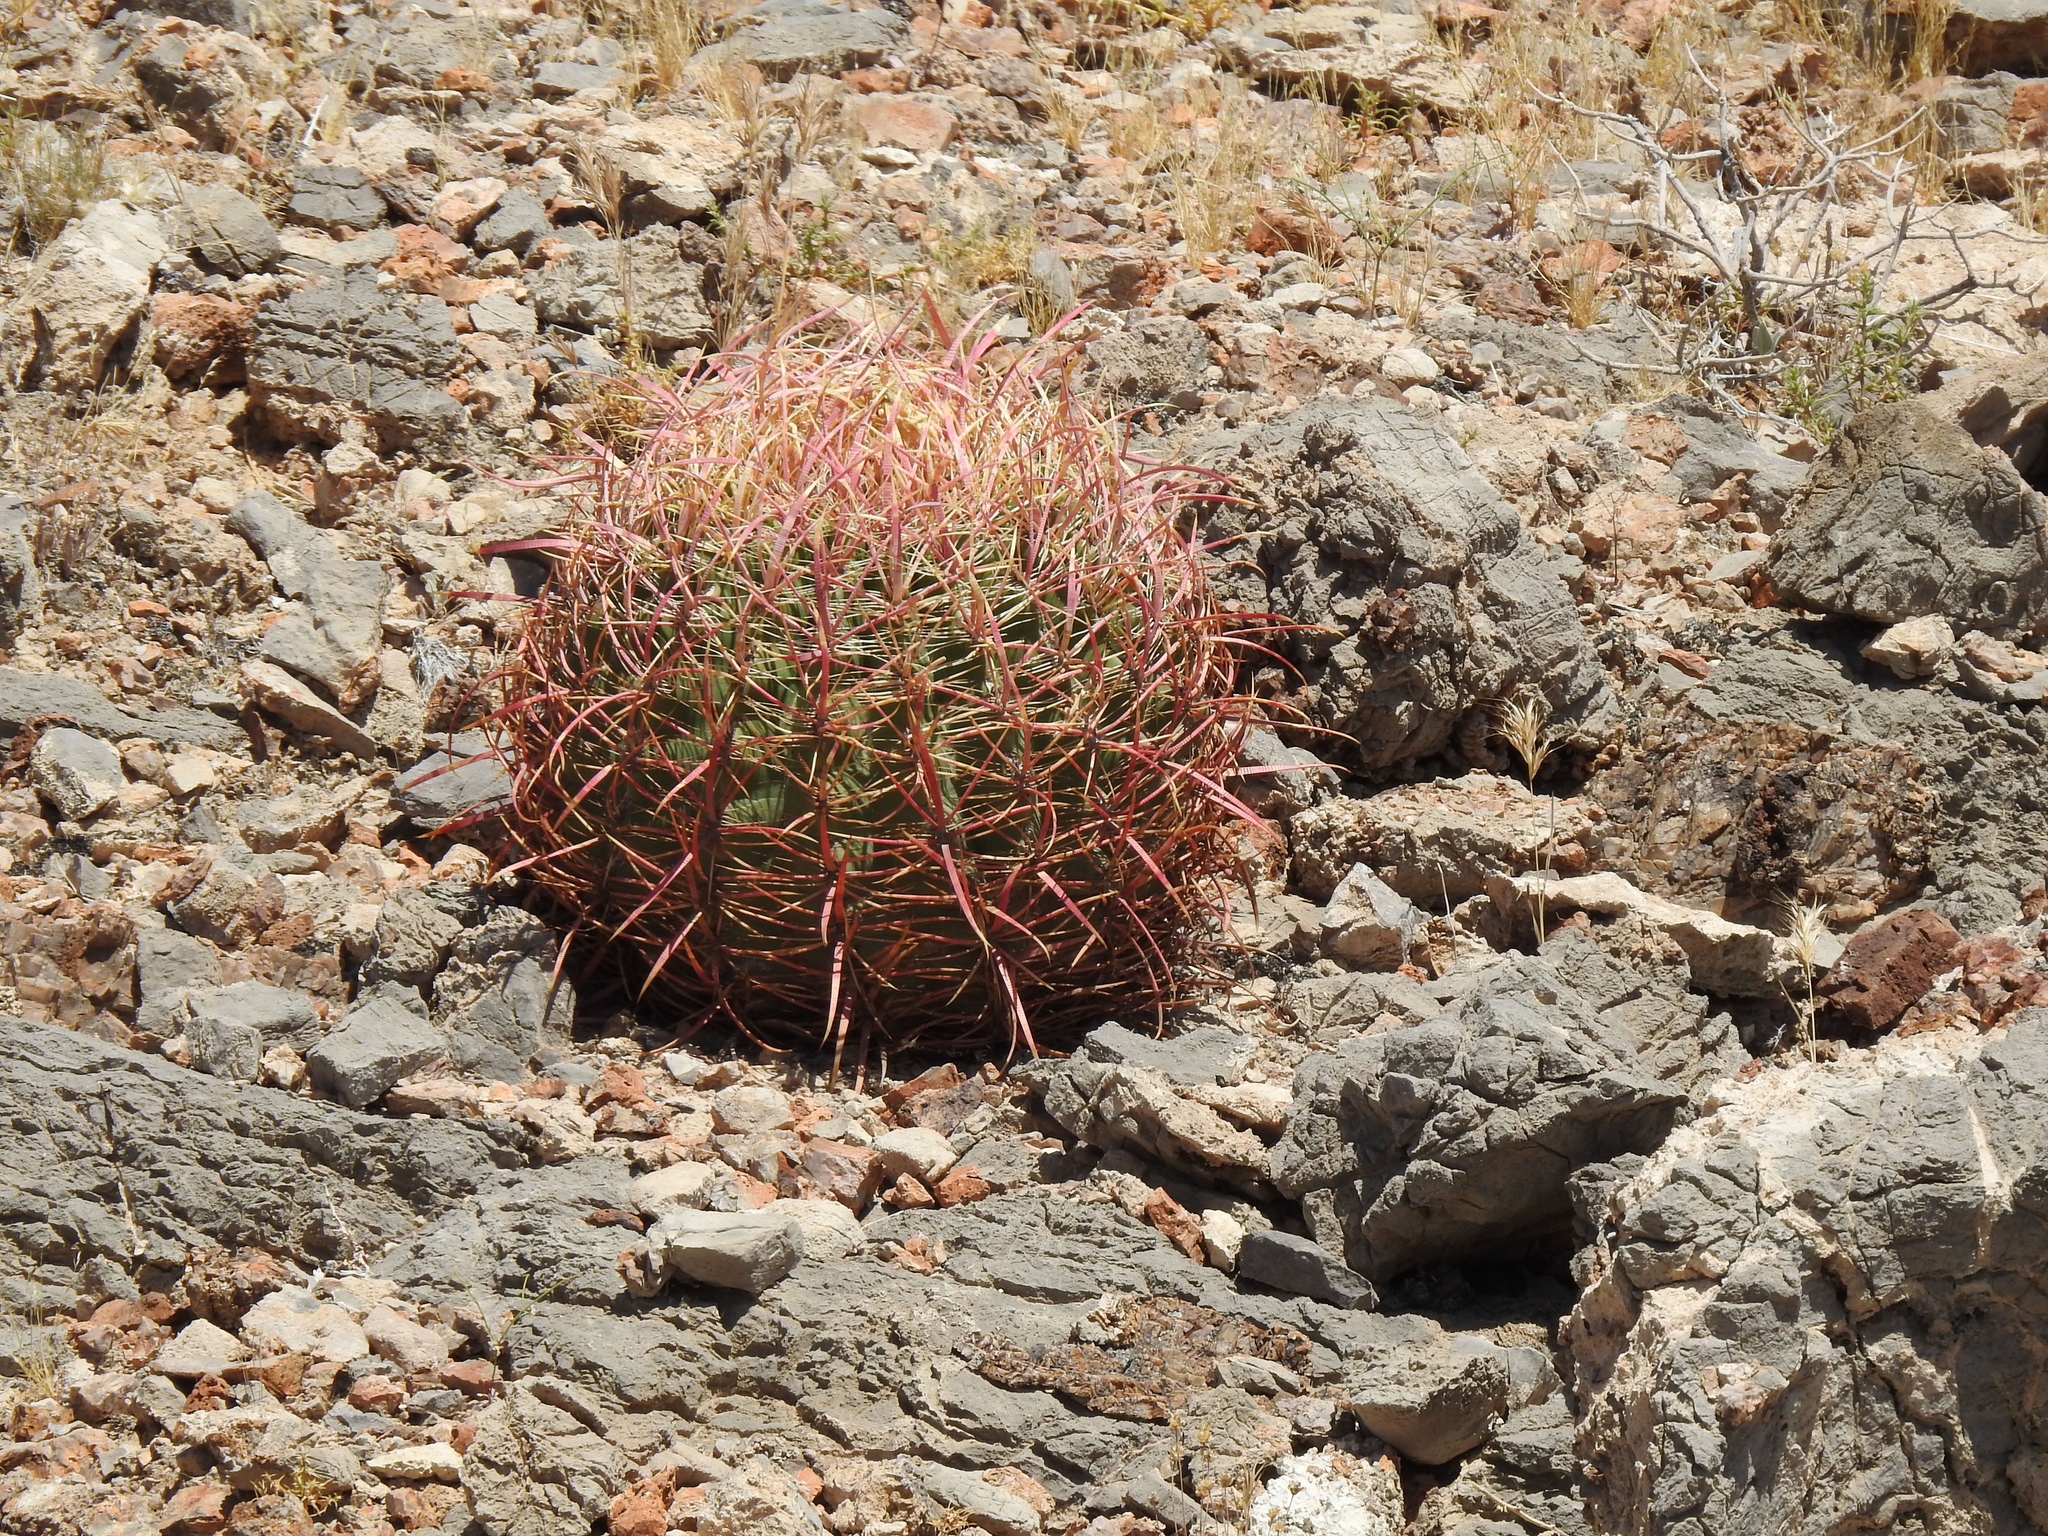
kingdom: Plantae
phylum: Tracheophyta
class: Magnoliopsida
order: Caryophyllales
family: Cactaceae
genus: Ferocactus
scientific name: Ferocactus cylindraceus
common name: California barrel cactus
